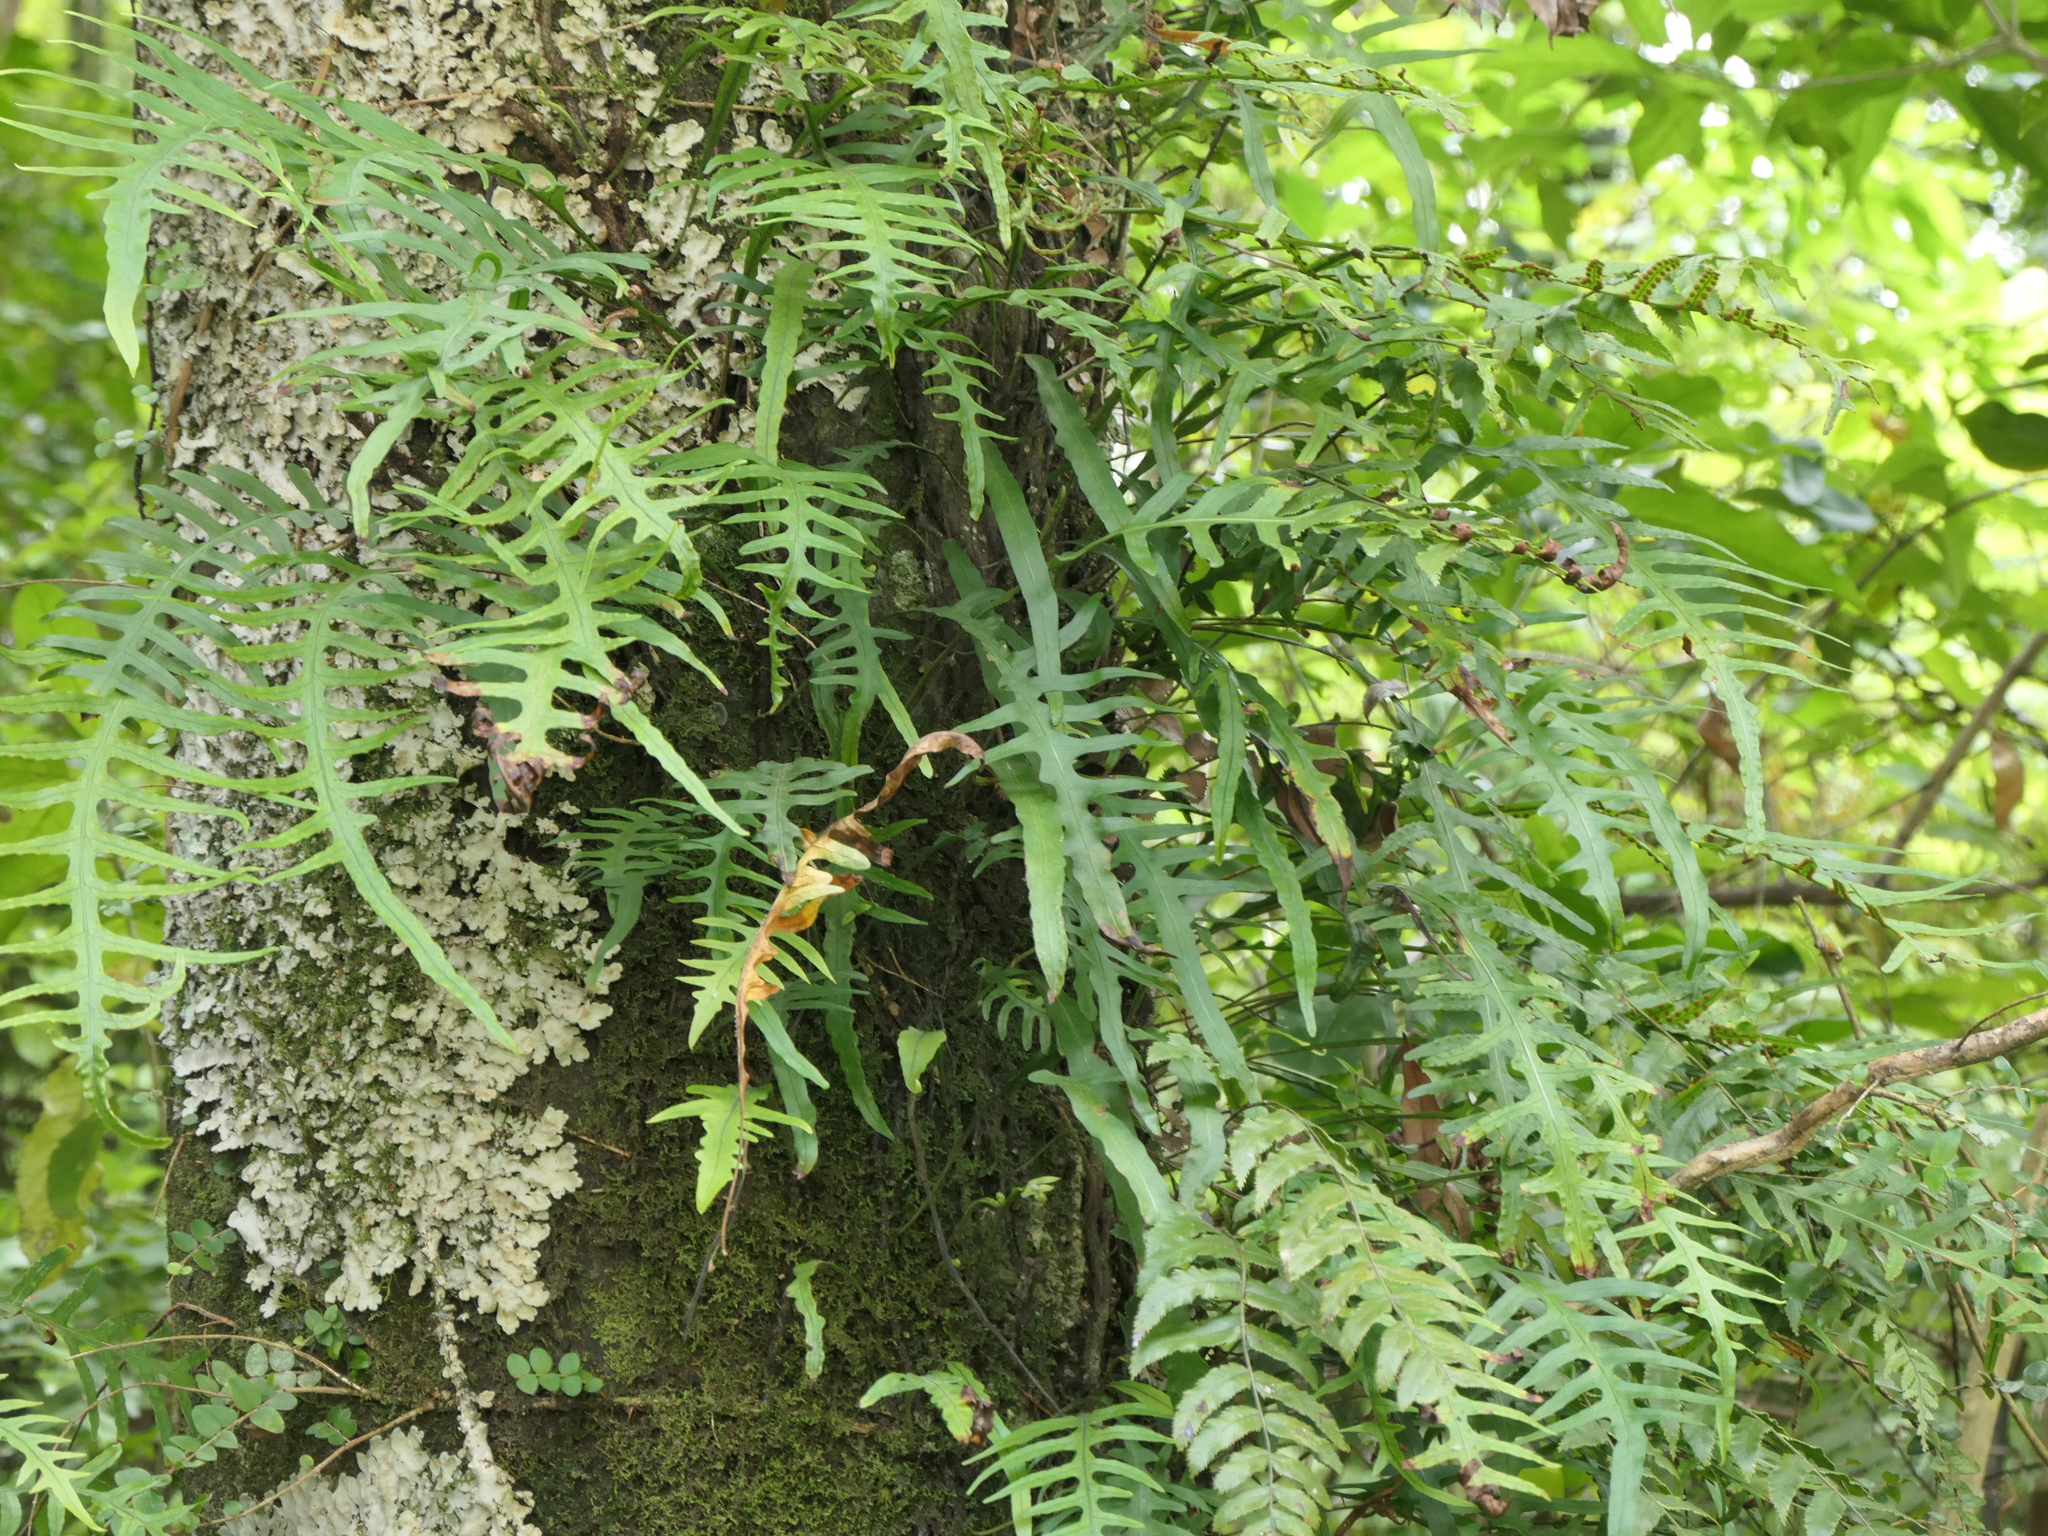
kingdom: Plantae
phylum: Tracheophyta
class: Polypodiopsida
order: Polypodiales
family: Polypodiaceae
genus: Lecanopteris
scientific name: Lecanopteris scandens
